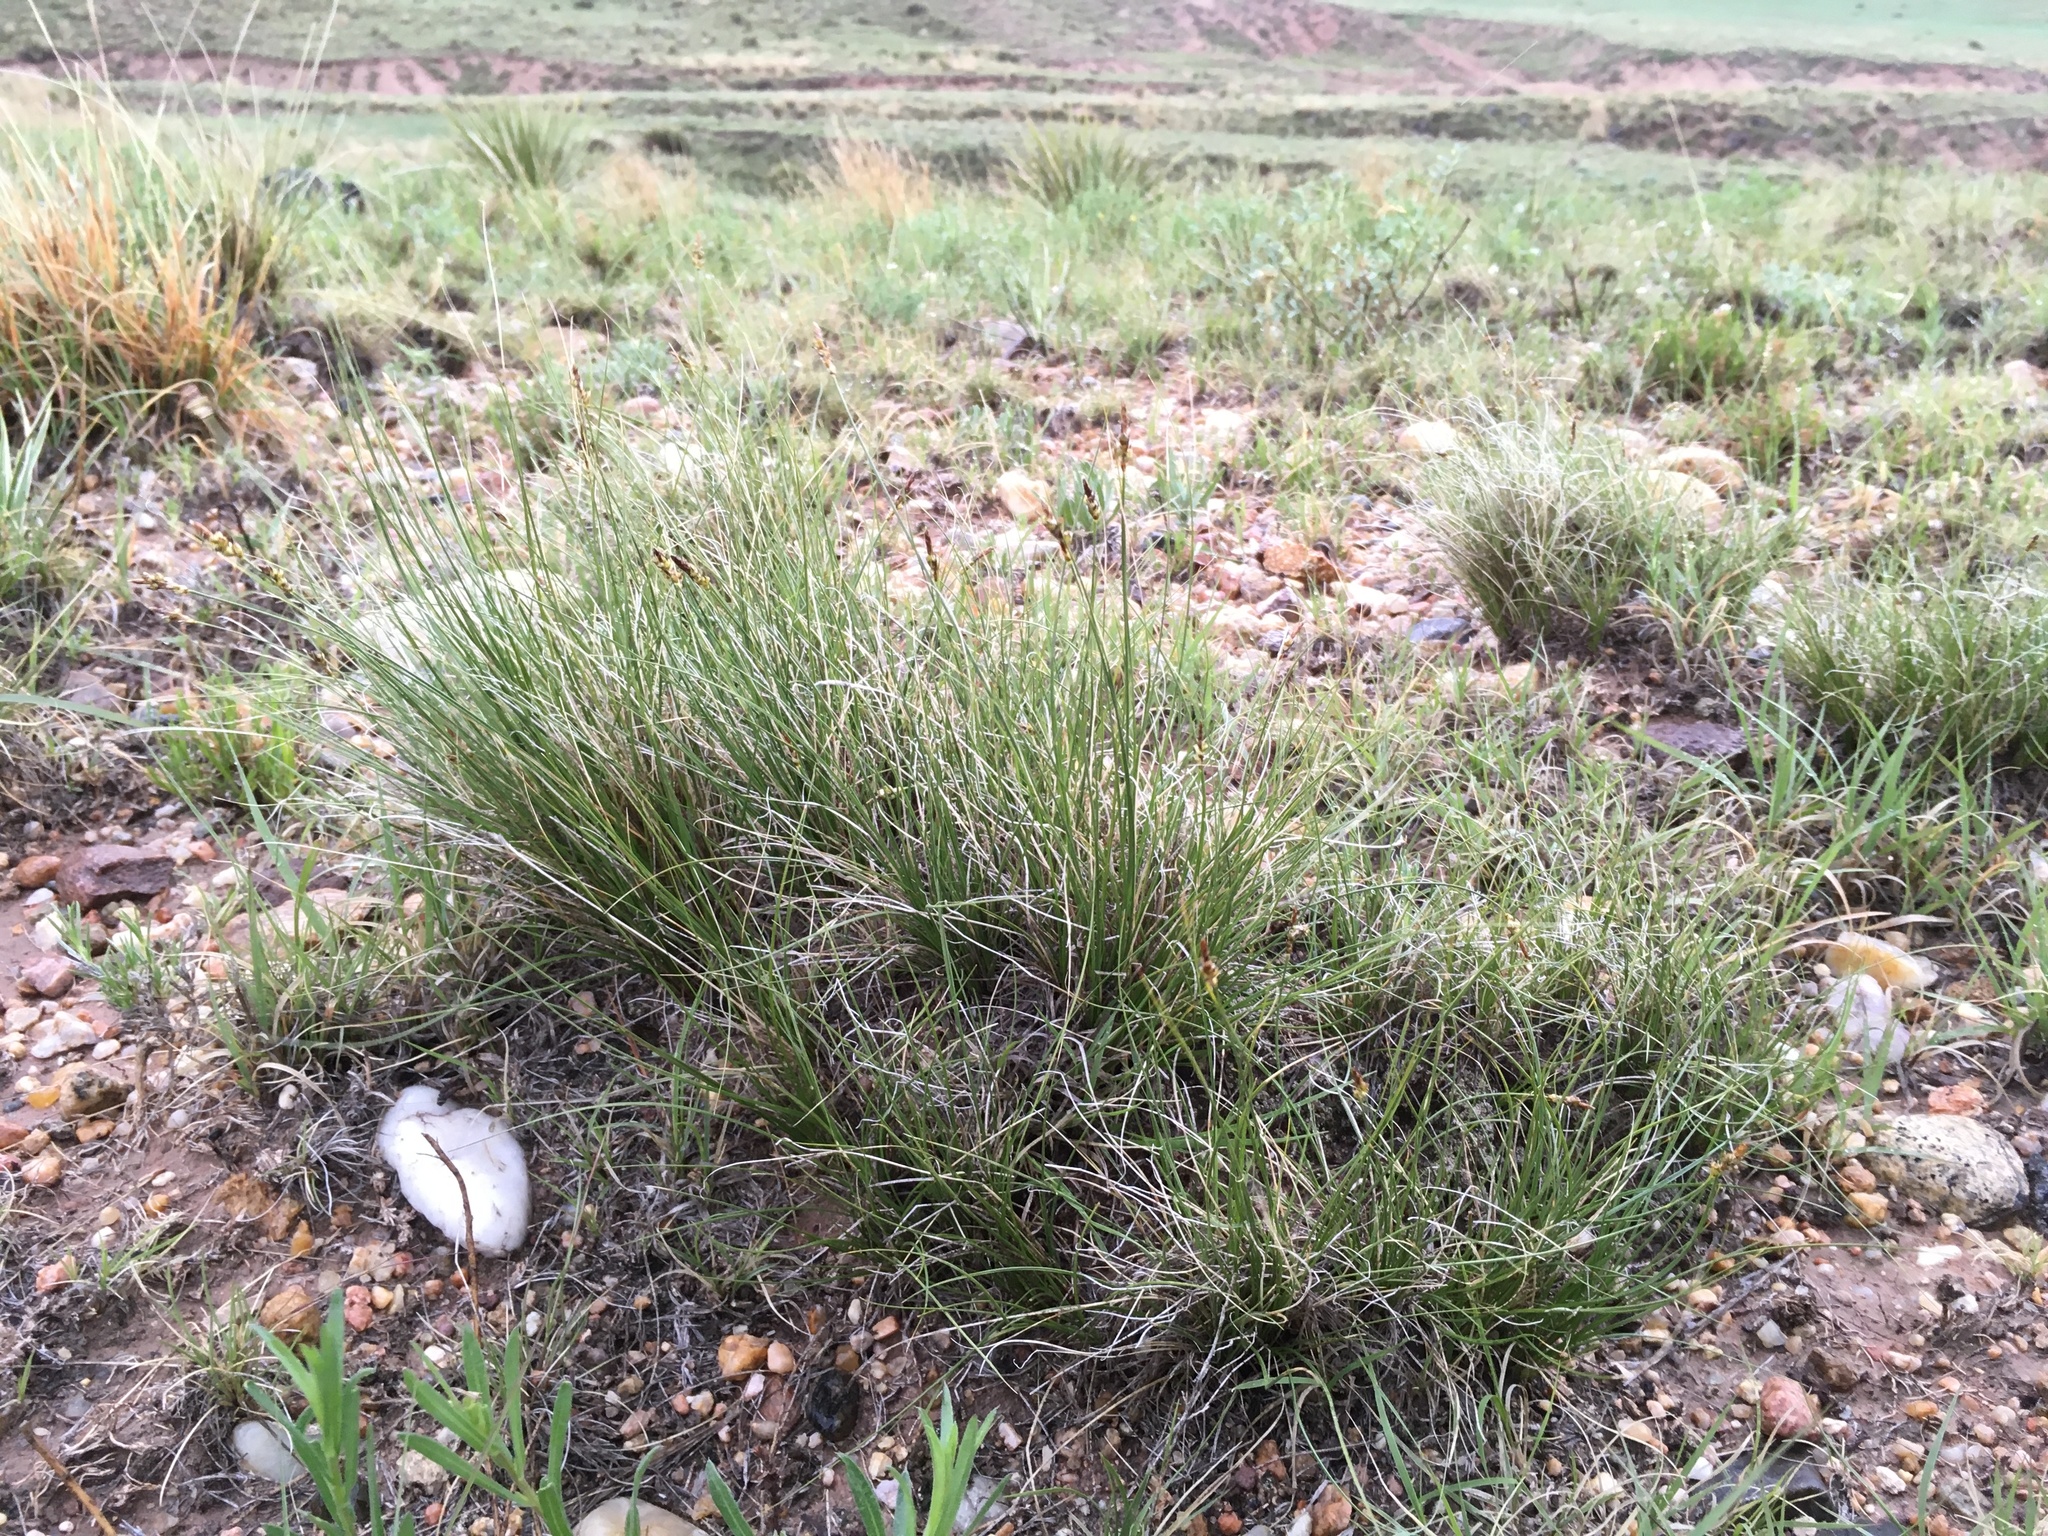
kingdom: Plantae
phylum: Tracheophyta
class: Liliopsida
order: Poales
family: Cyperaceae
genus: Carex
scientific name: Carex filifolia
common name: Threadleaf sedge
